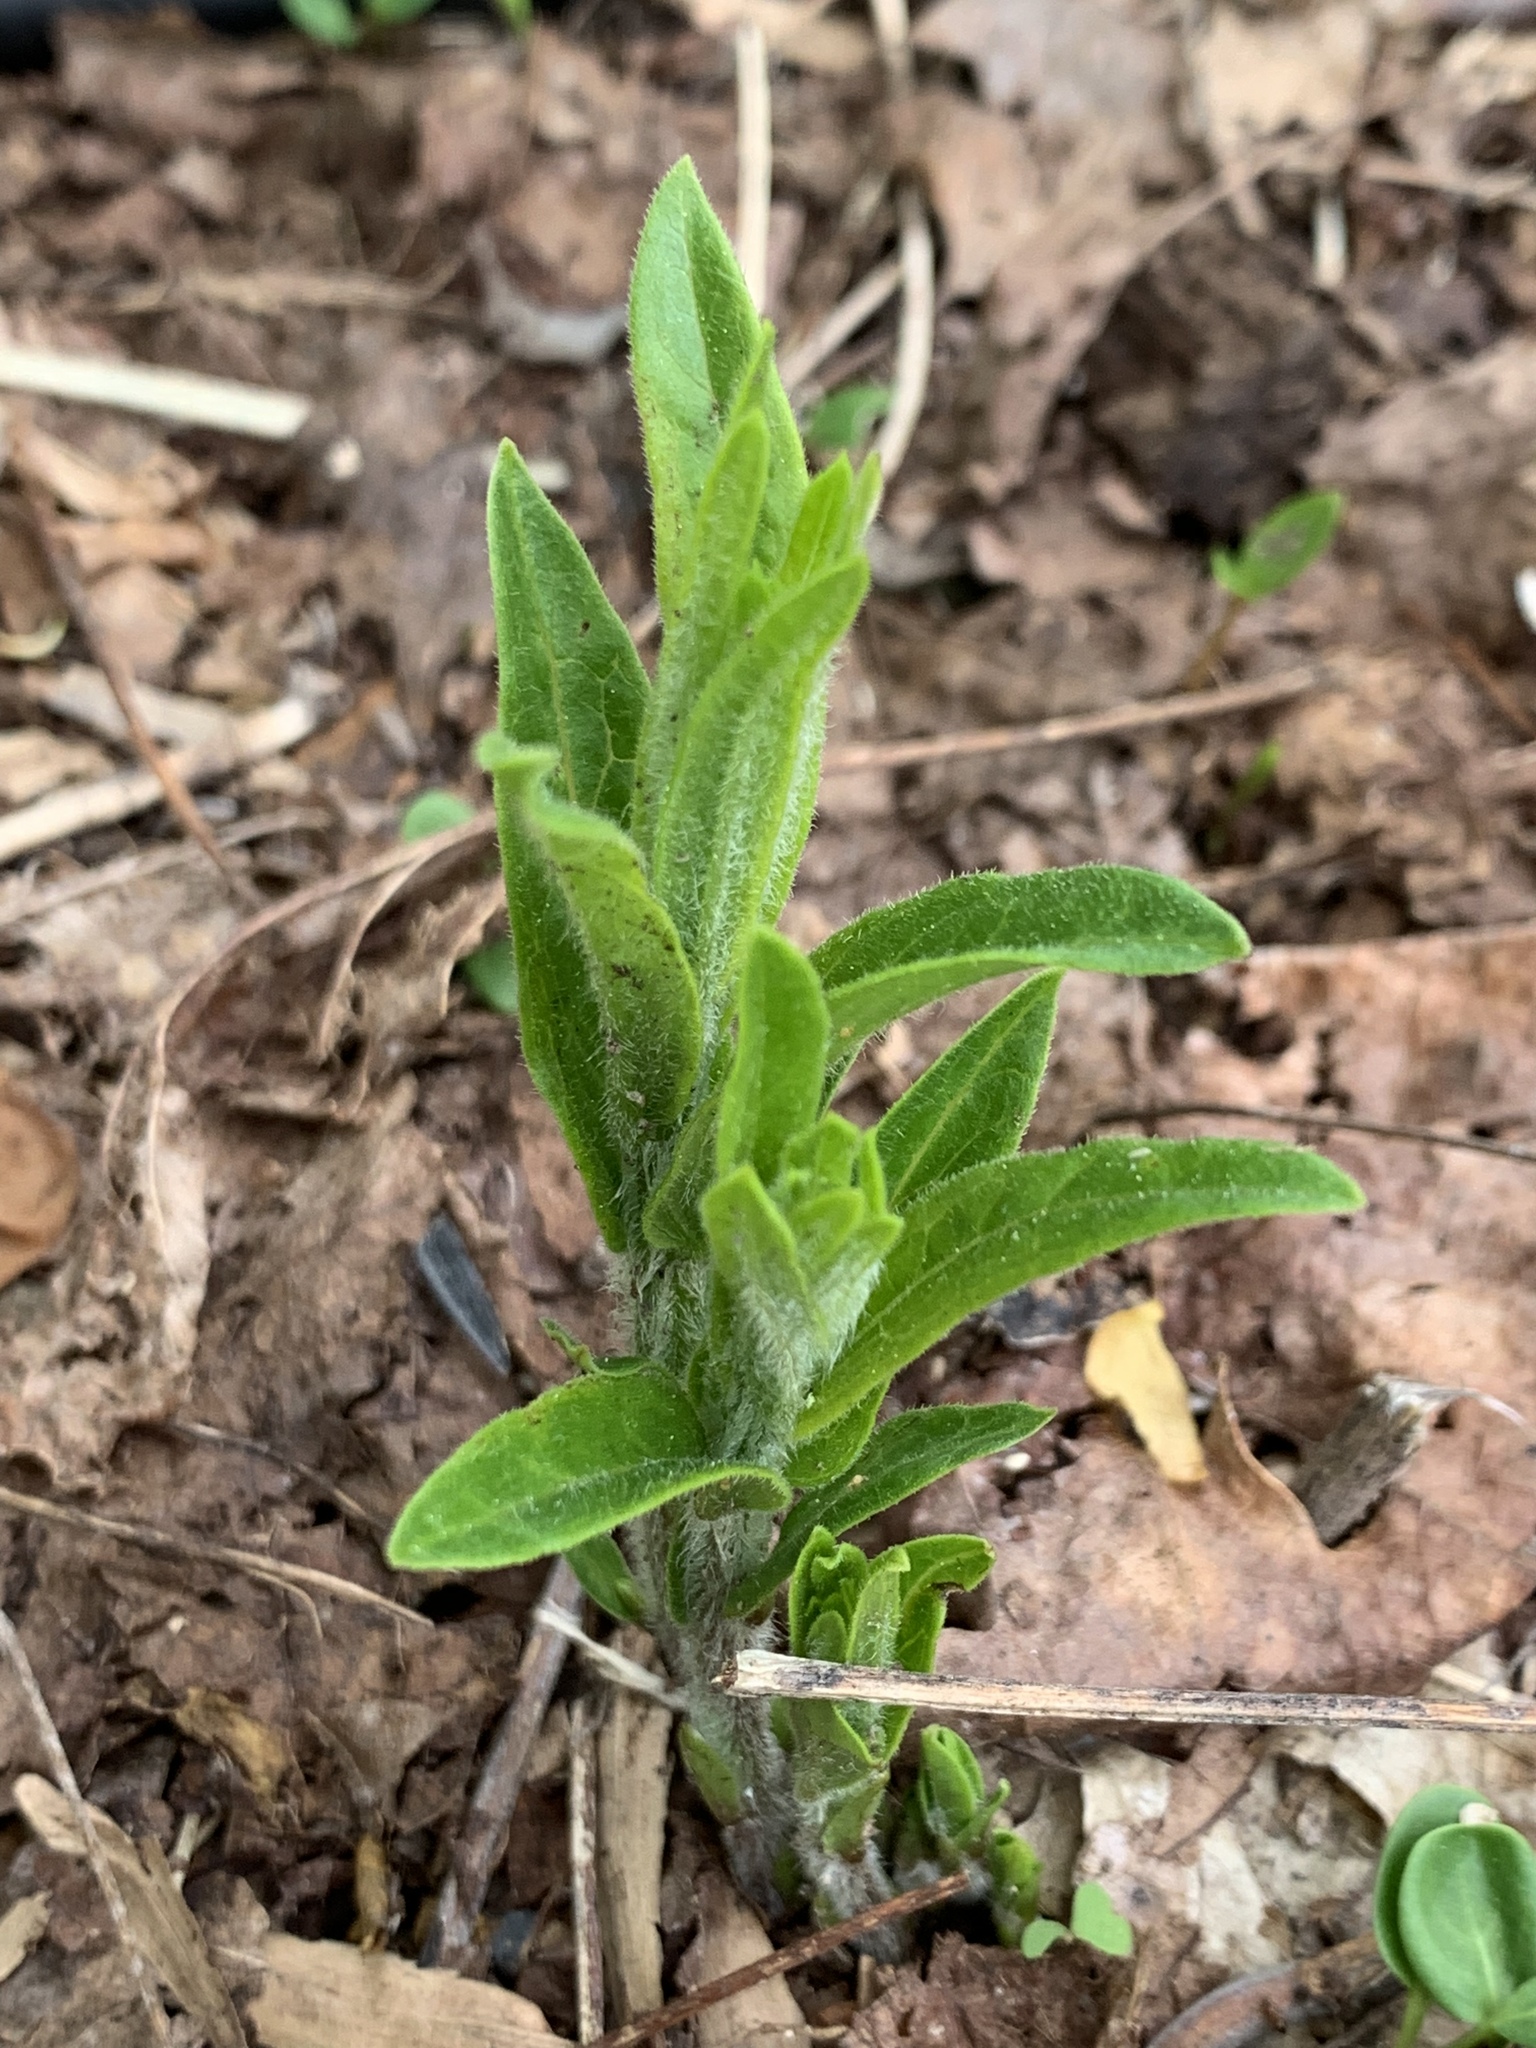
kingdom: Plantae
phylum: Tracheophyta
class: Magnoliopsida
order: Gentianales
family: Apocynaceae
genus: Asclepias
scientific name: Asclepias tuberosa
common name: Butterfly milkweed
